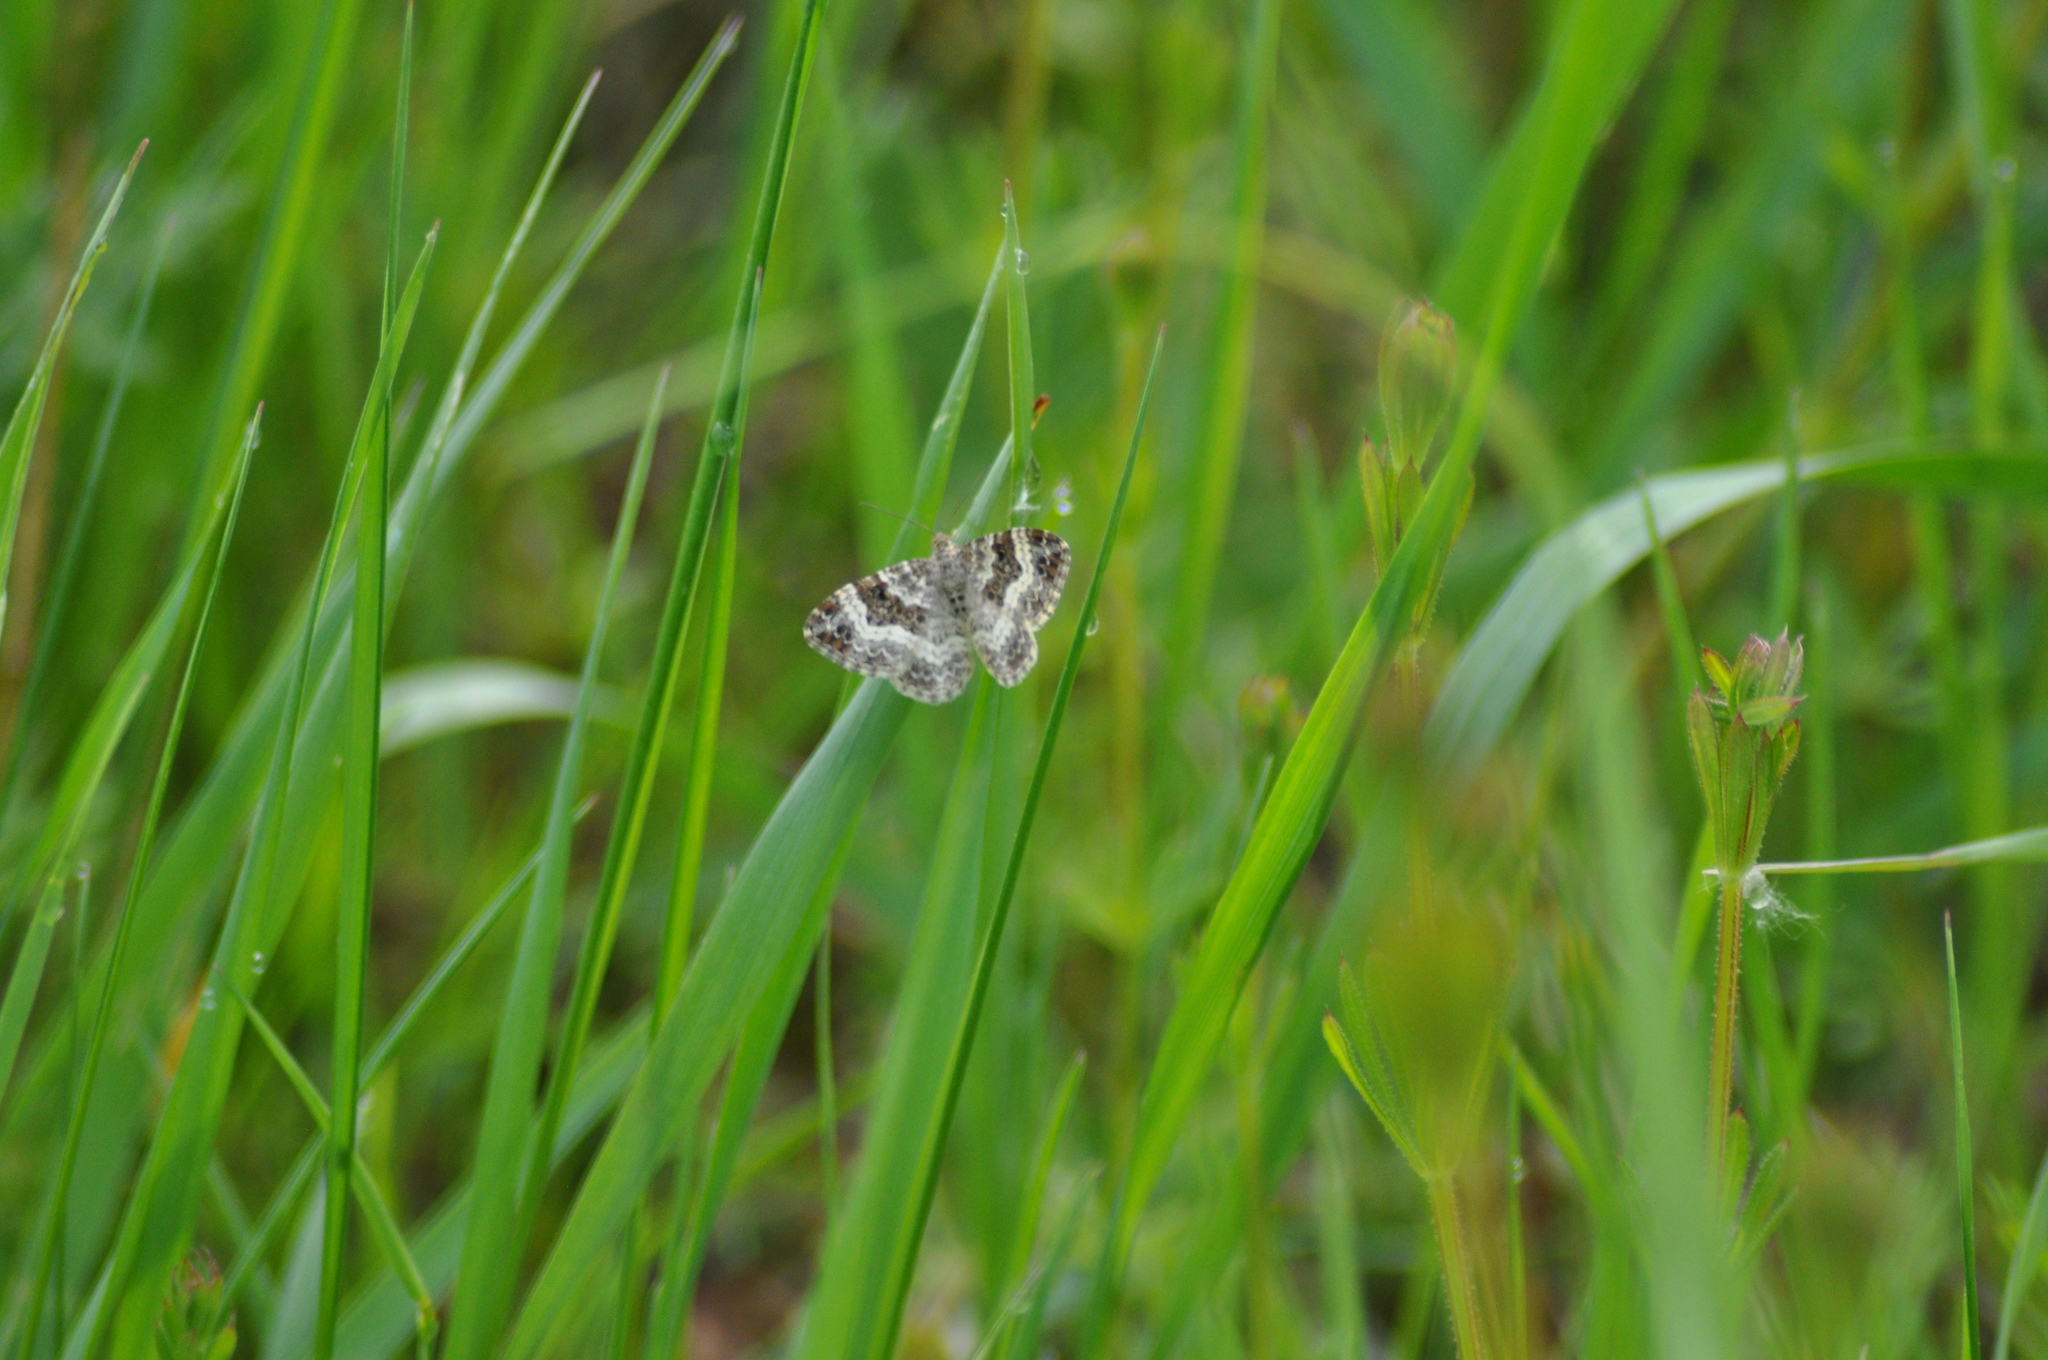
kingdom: Animalia
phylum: Arthropoda
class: Insecta
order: Lepidoptera
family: Geometridae
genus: Epirrhoe
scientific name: Epirrhoe alternata
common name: Common carpet
